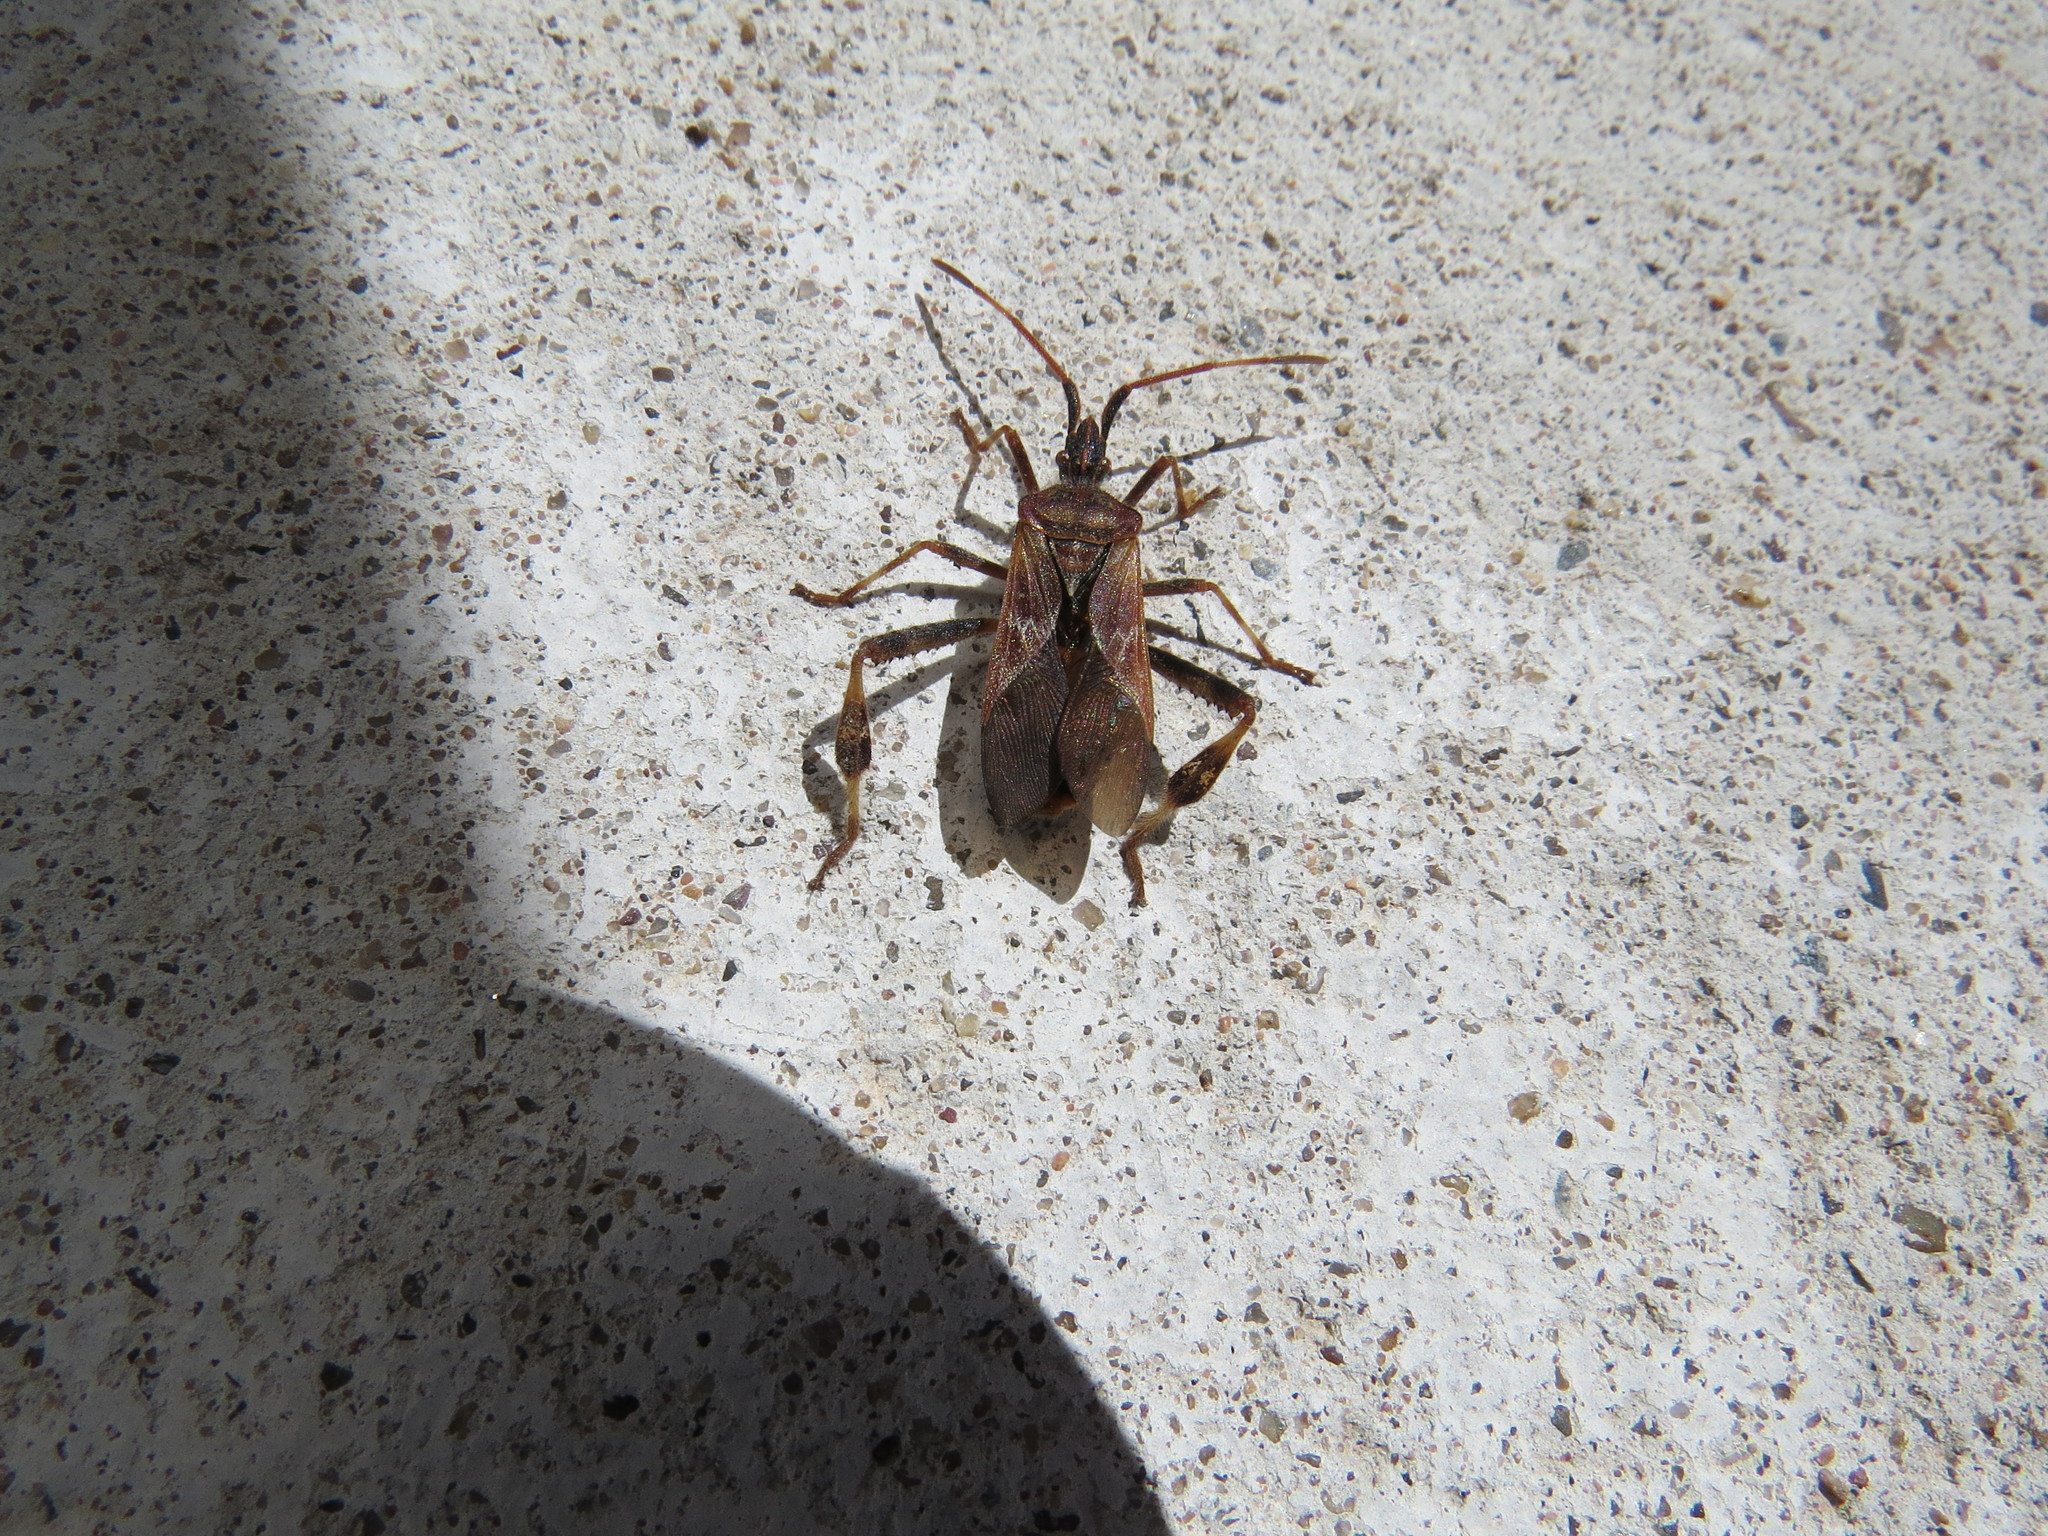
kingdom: Animalia
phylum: Arthropoda
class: Insecta
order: Hemiptera
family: Coreidae
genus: Leptoglossus
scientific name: Leptoglossus occidentalis
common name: Western conifer-seed bug
